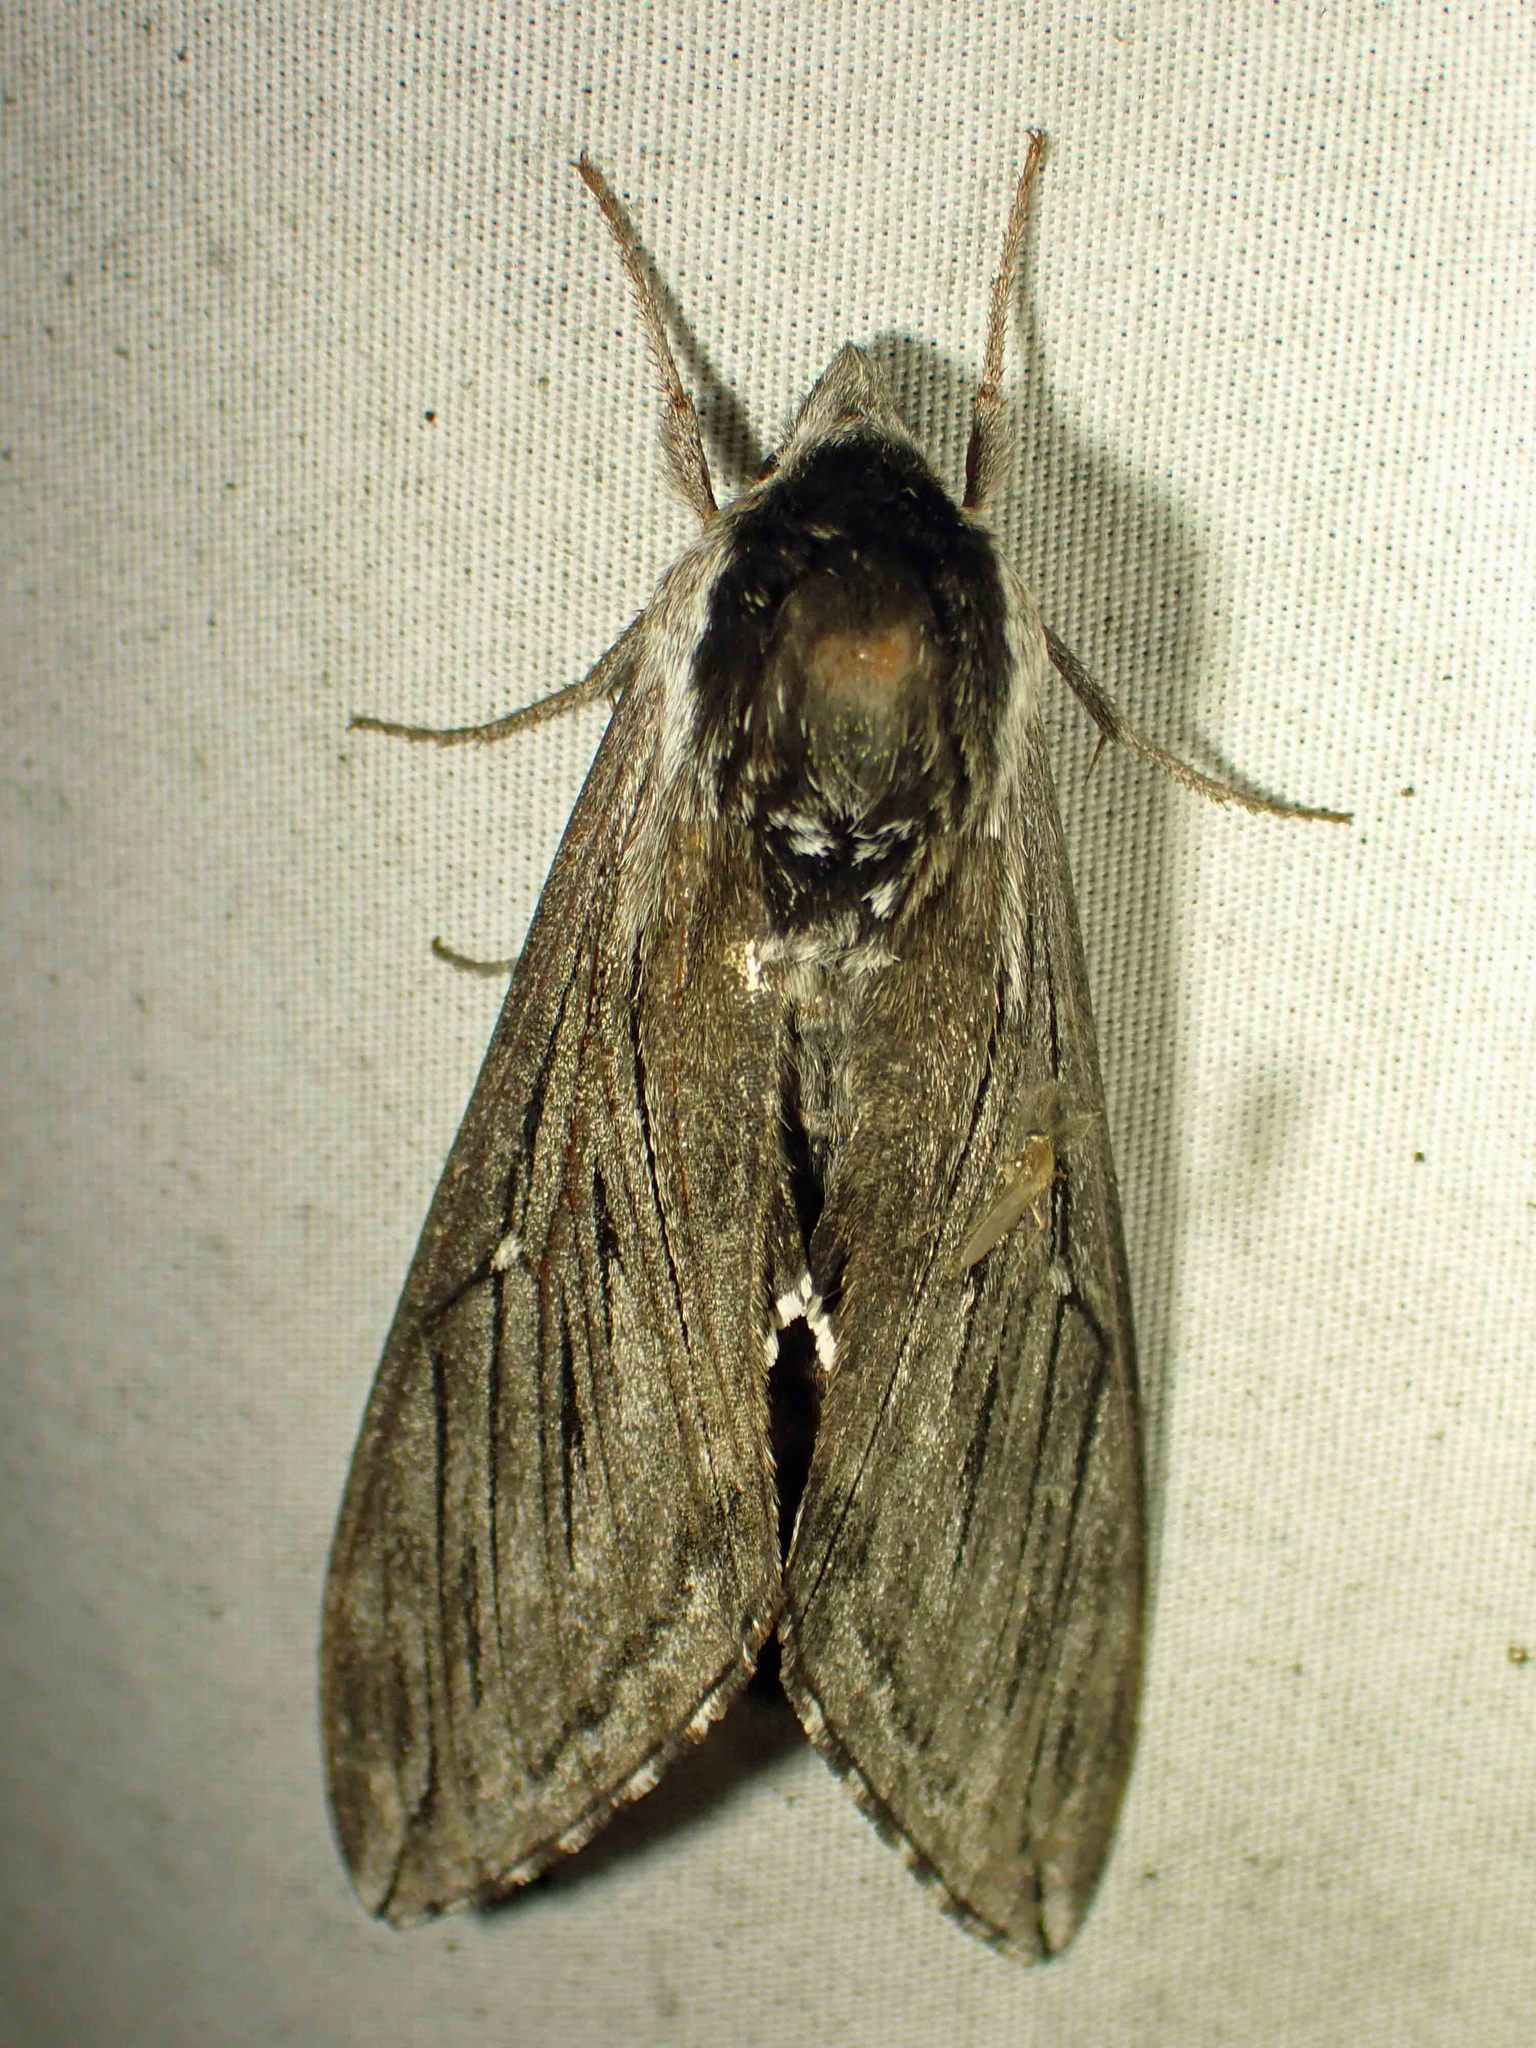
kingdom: Animalia
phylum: Arthropoda
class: Insecta
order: Lepidoptera
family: Sphingidae
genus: Sphinx
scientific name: Sphinx poecila
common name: Northern apple sphinx
